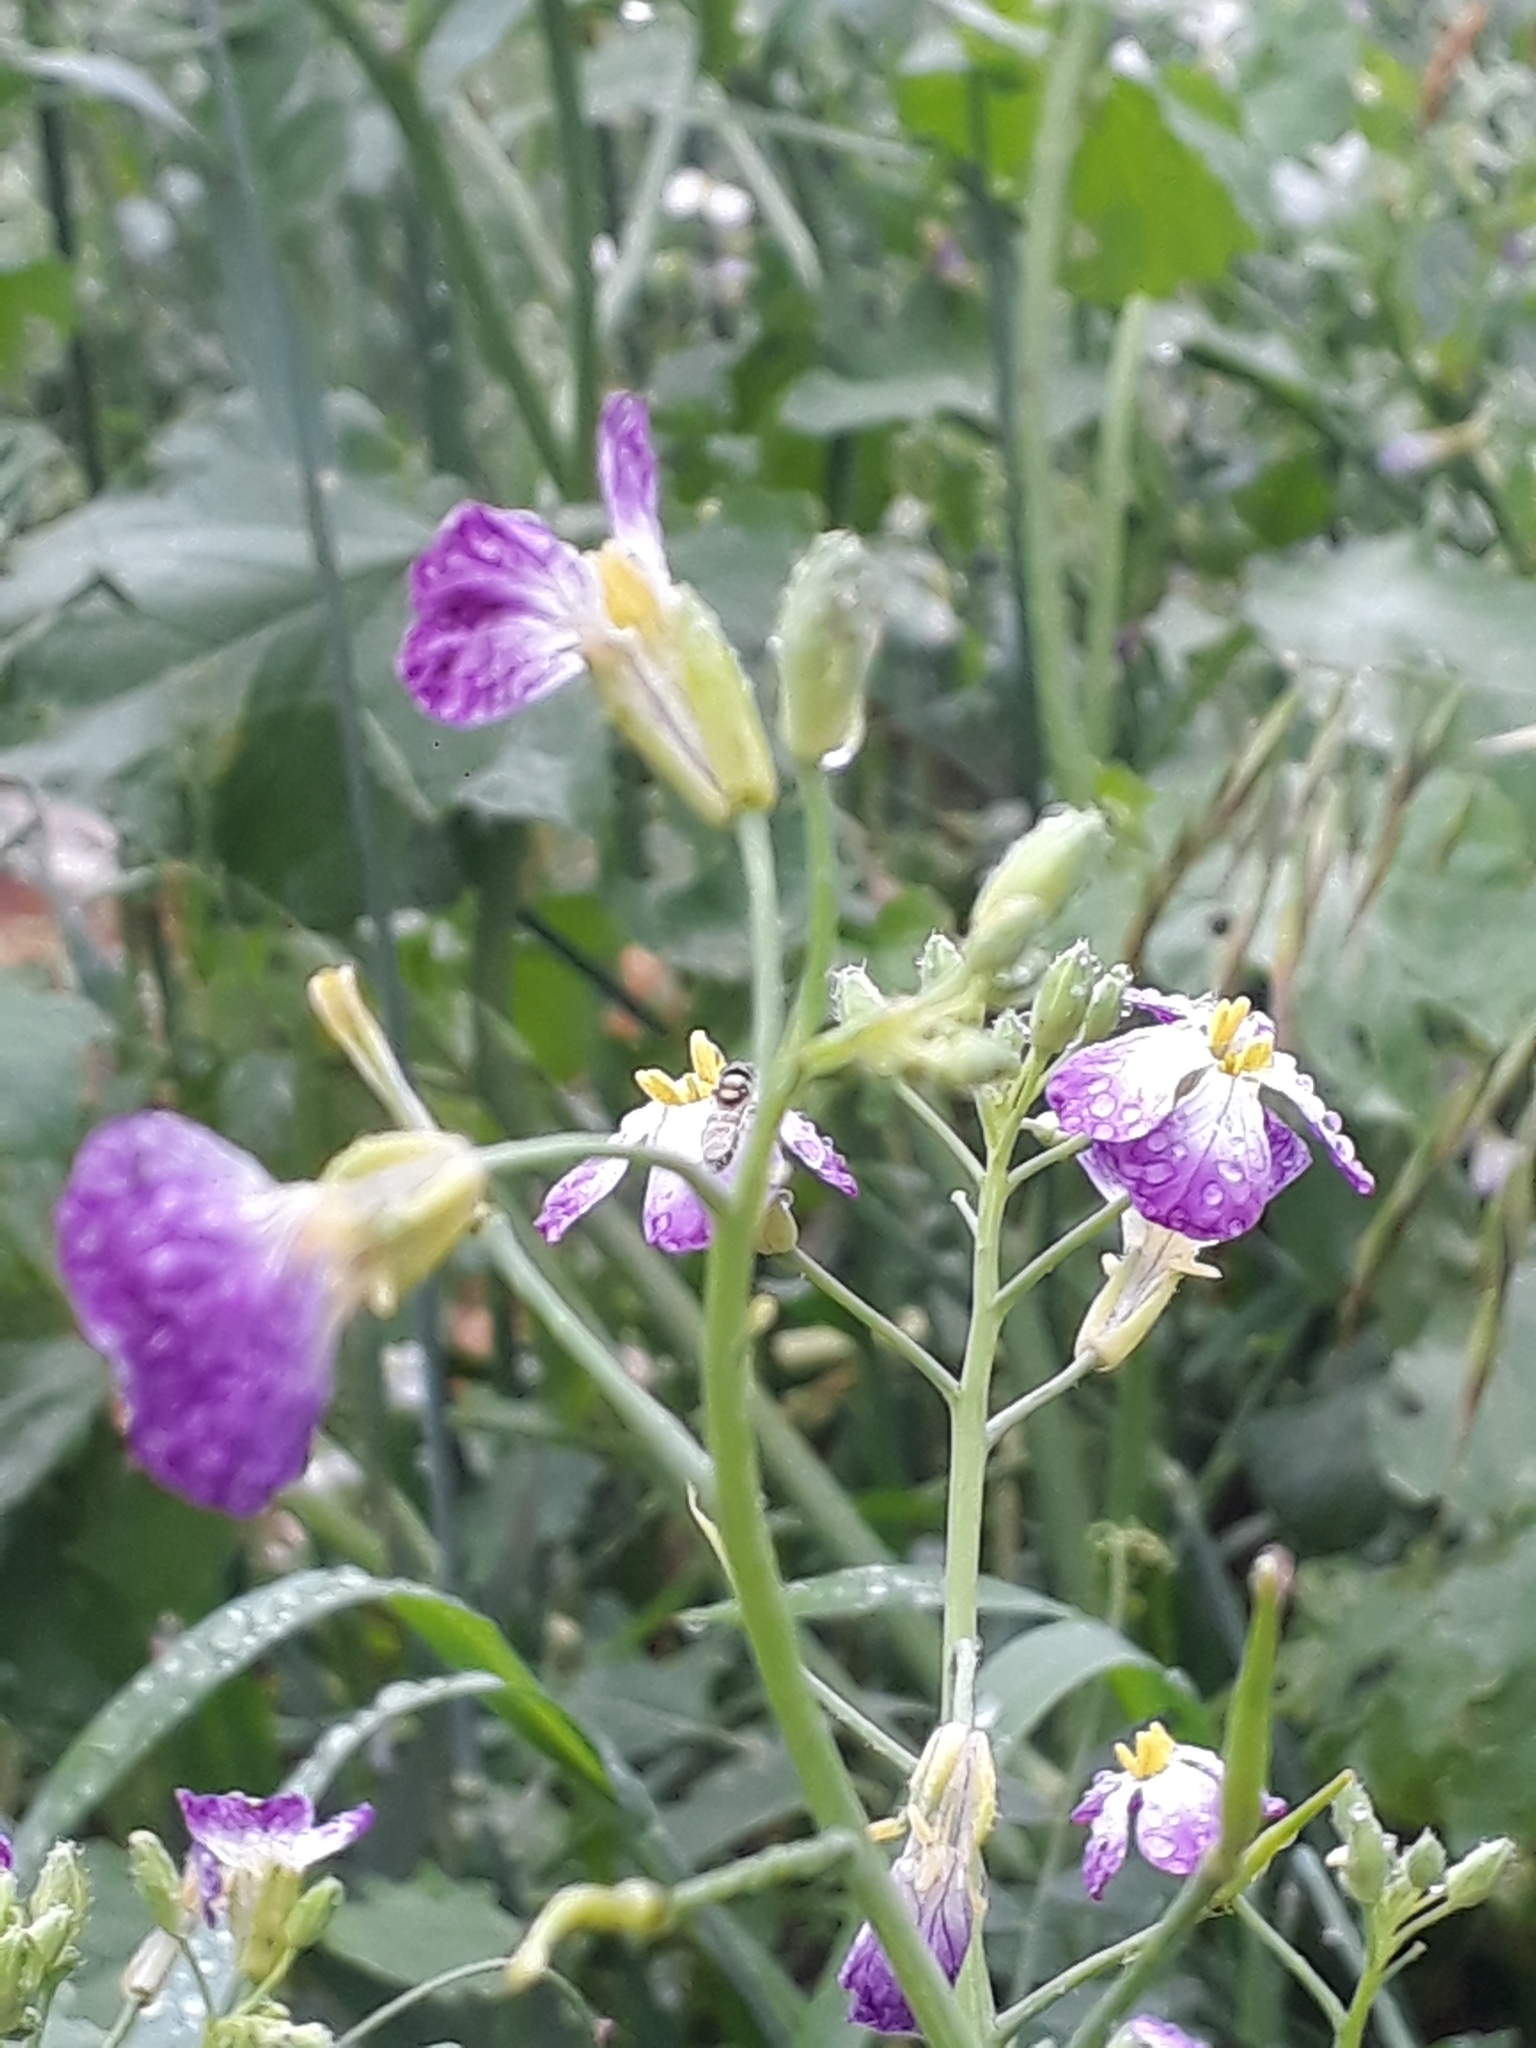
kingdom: Plantae
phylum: Tracheophyta
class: Magnoliopsida
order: Brassicales
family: Brassicaceae
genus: Raphanus
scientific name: Raphanus sativus
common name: Cultivated radish
